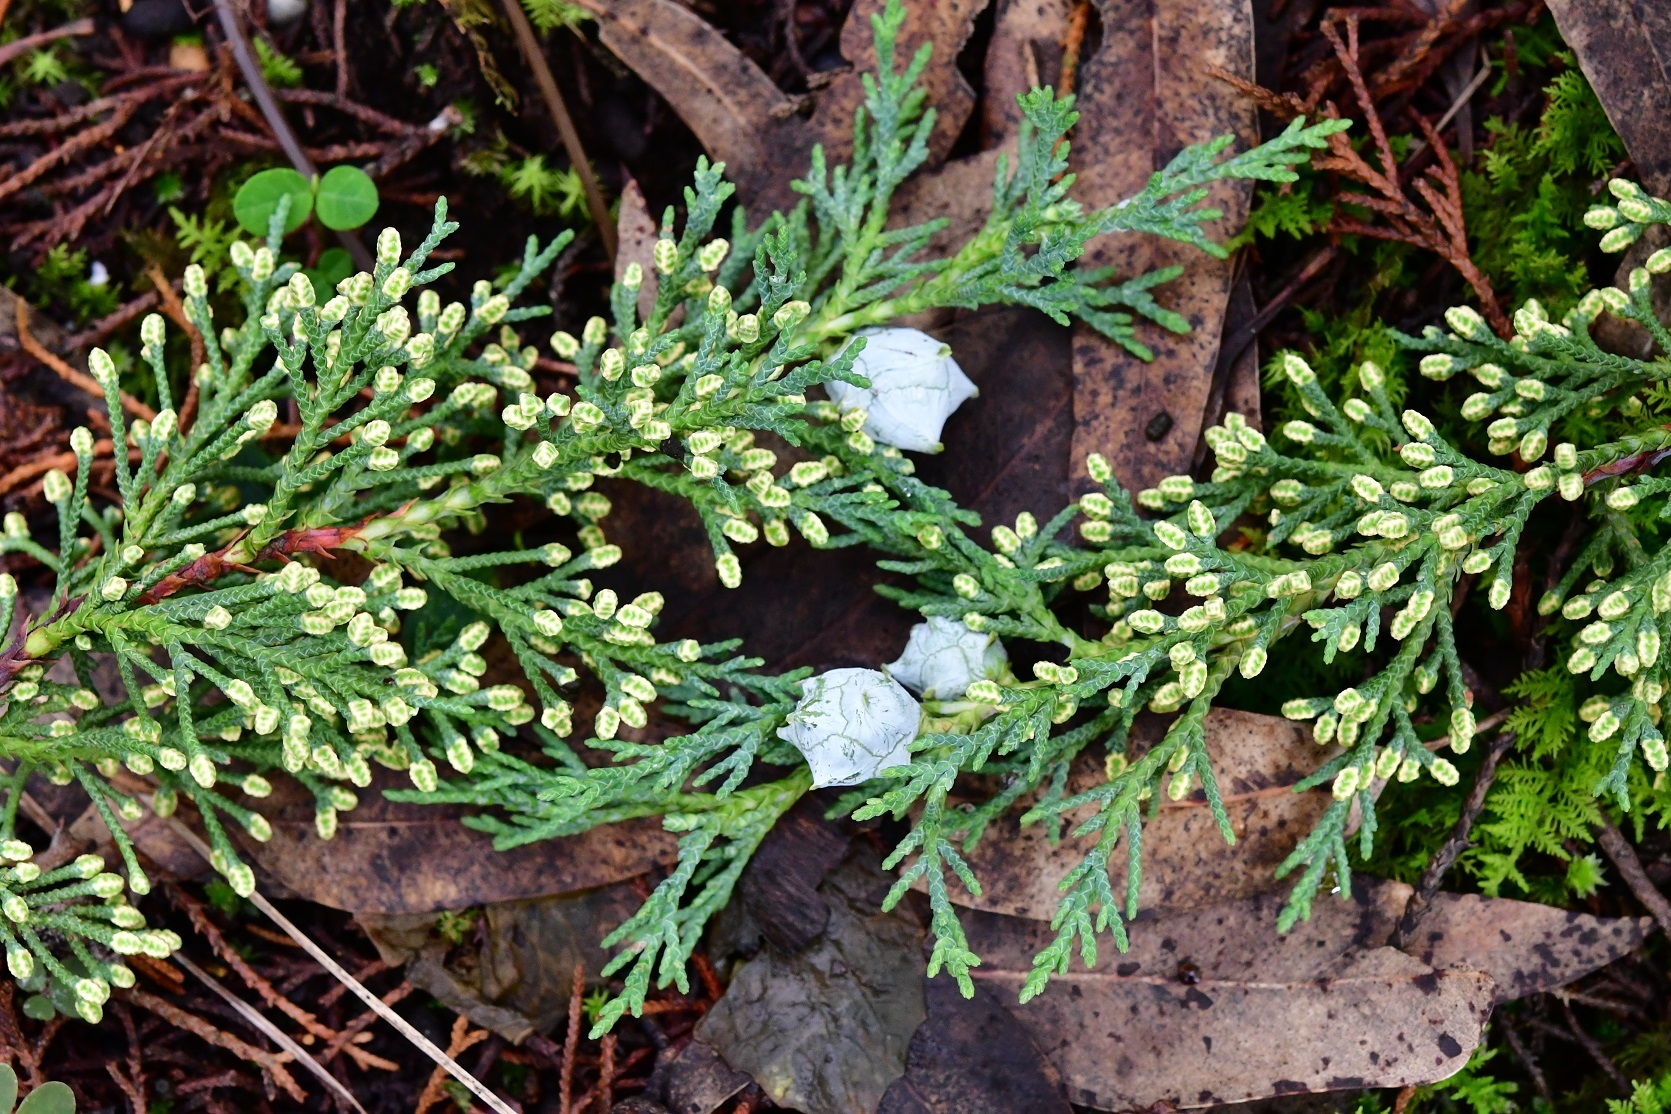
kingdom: Plantae
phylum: Tracheophyta
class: Pinopsida
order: Pinales
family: Cupressaceae
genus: Cupressus
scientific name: Cupressus lusitanica
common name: Mexican cypress
